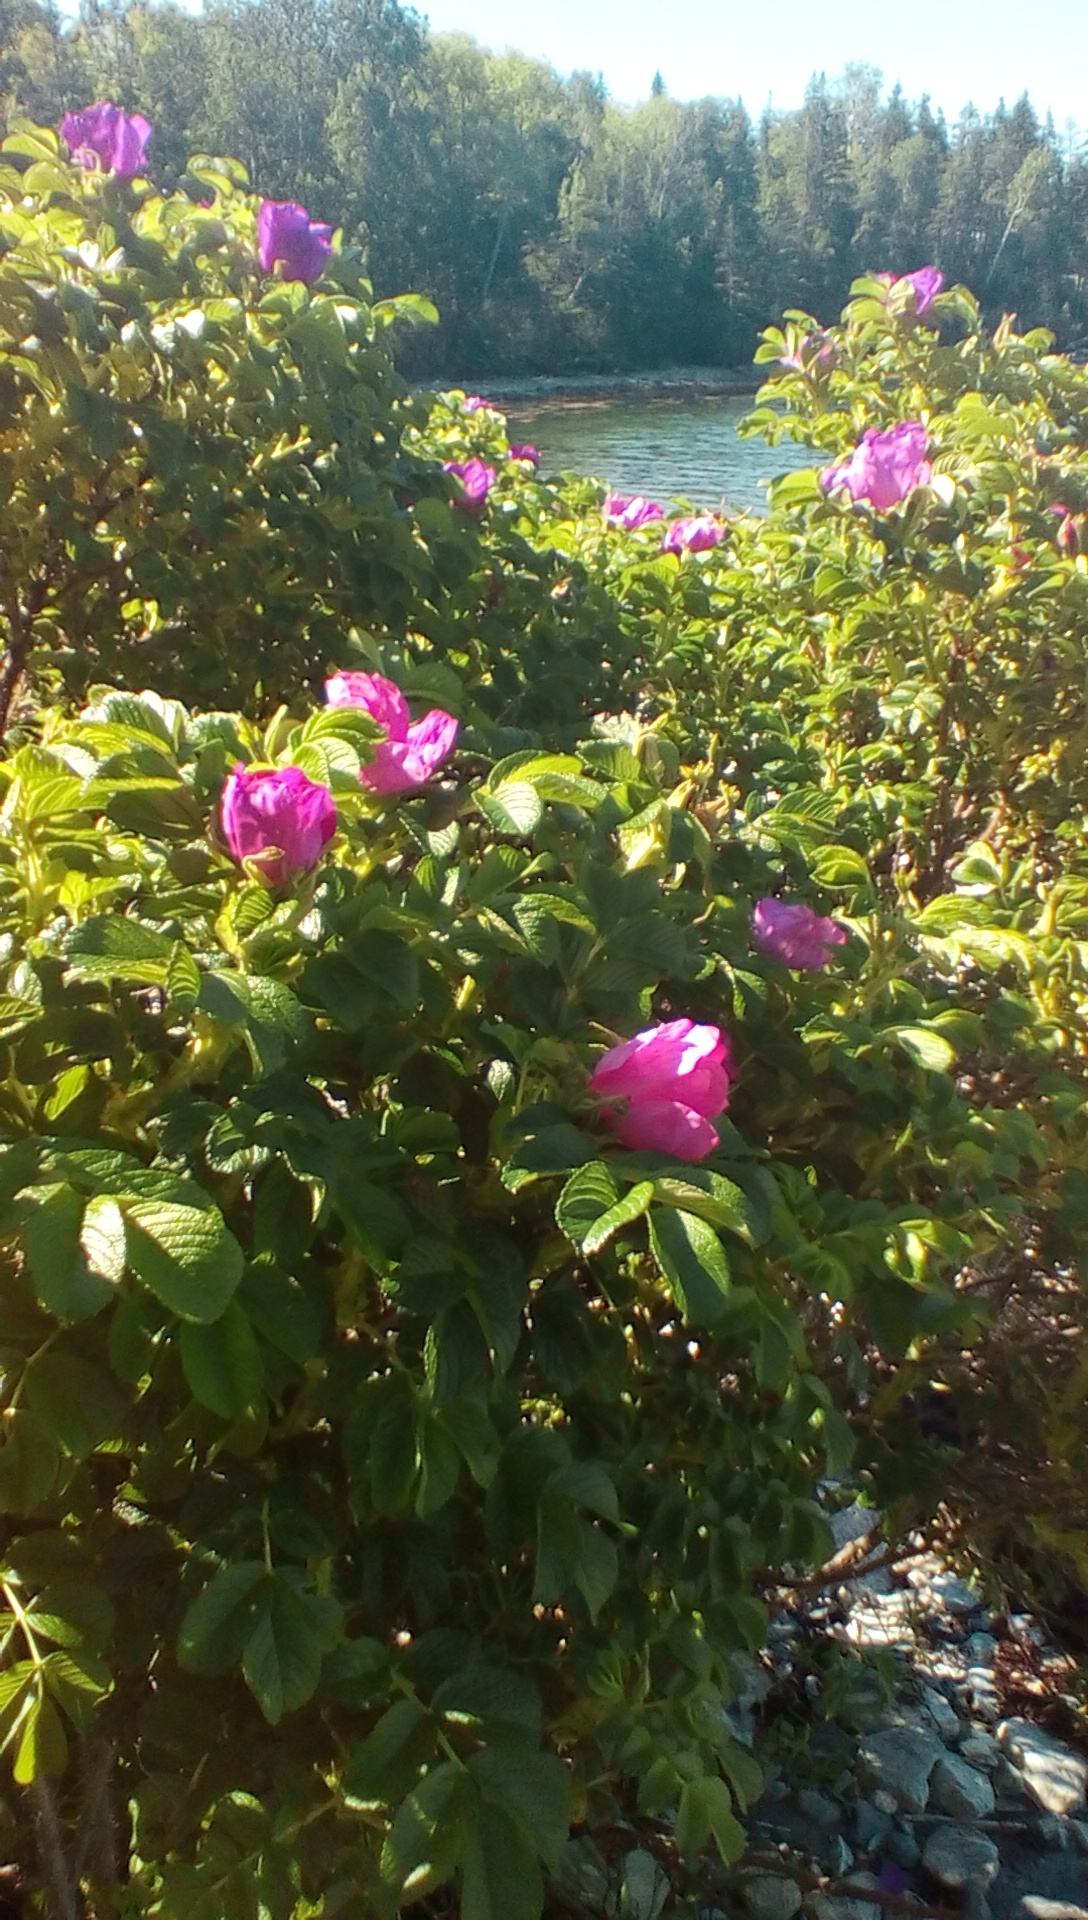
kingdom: Plantae
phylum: Tracheophyta
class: Magnoliopsida
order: Rosales
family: Rosaceae
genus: Rosa
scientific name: Rosa rugosa
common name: Japanese rose
